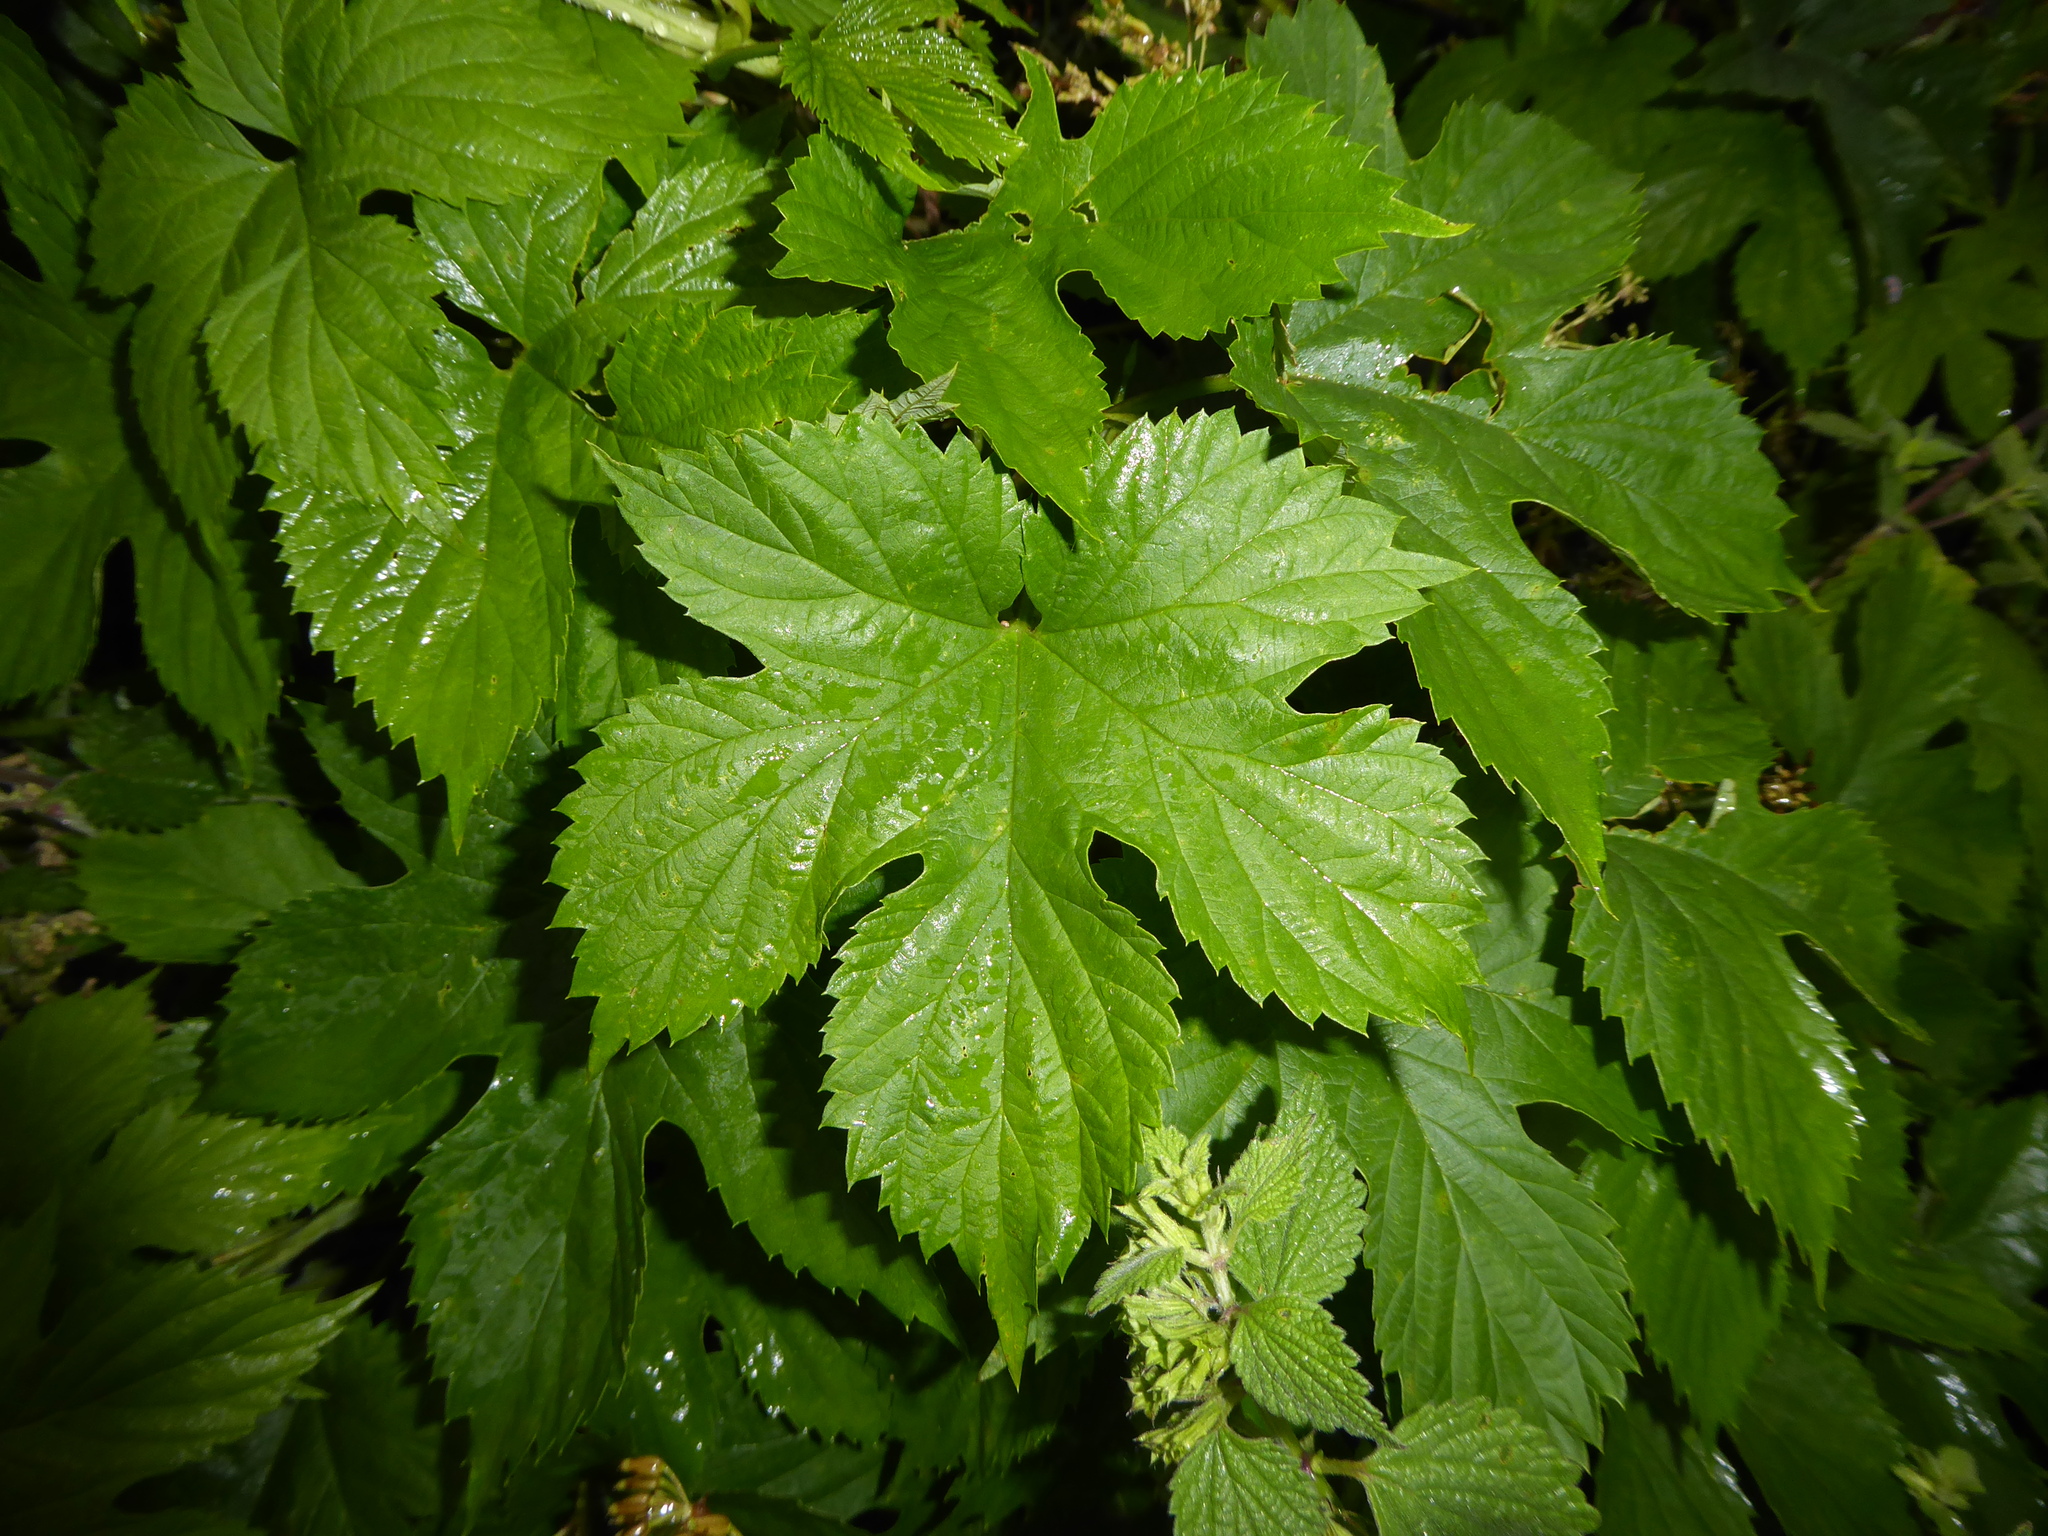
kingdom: Plantae
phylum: Tracheophyta
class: Magnoliopsida
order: Rosales
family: Cannabaceae
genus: Humulus
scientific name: Humulus lupulus
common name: Hop
